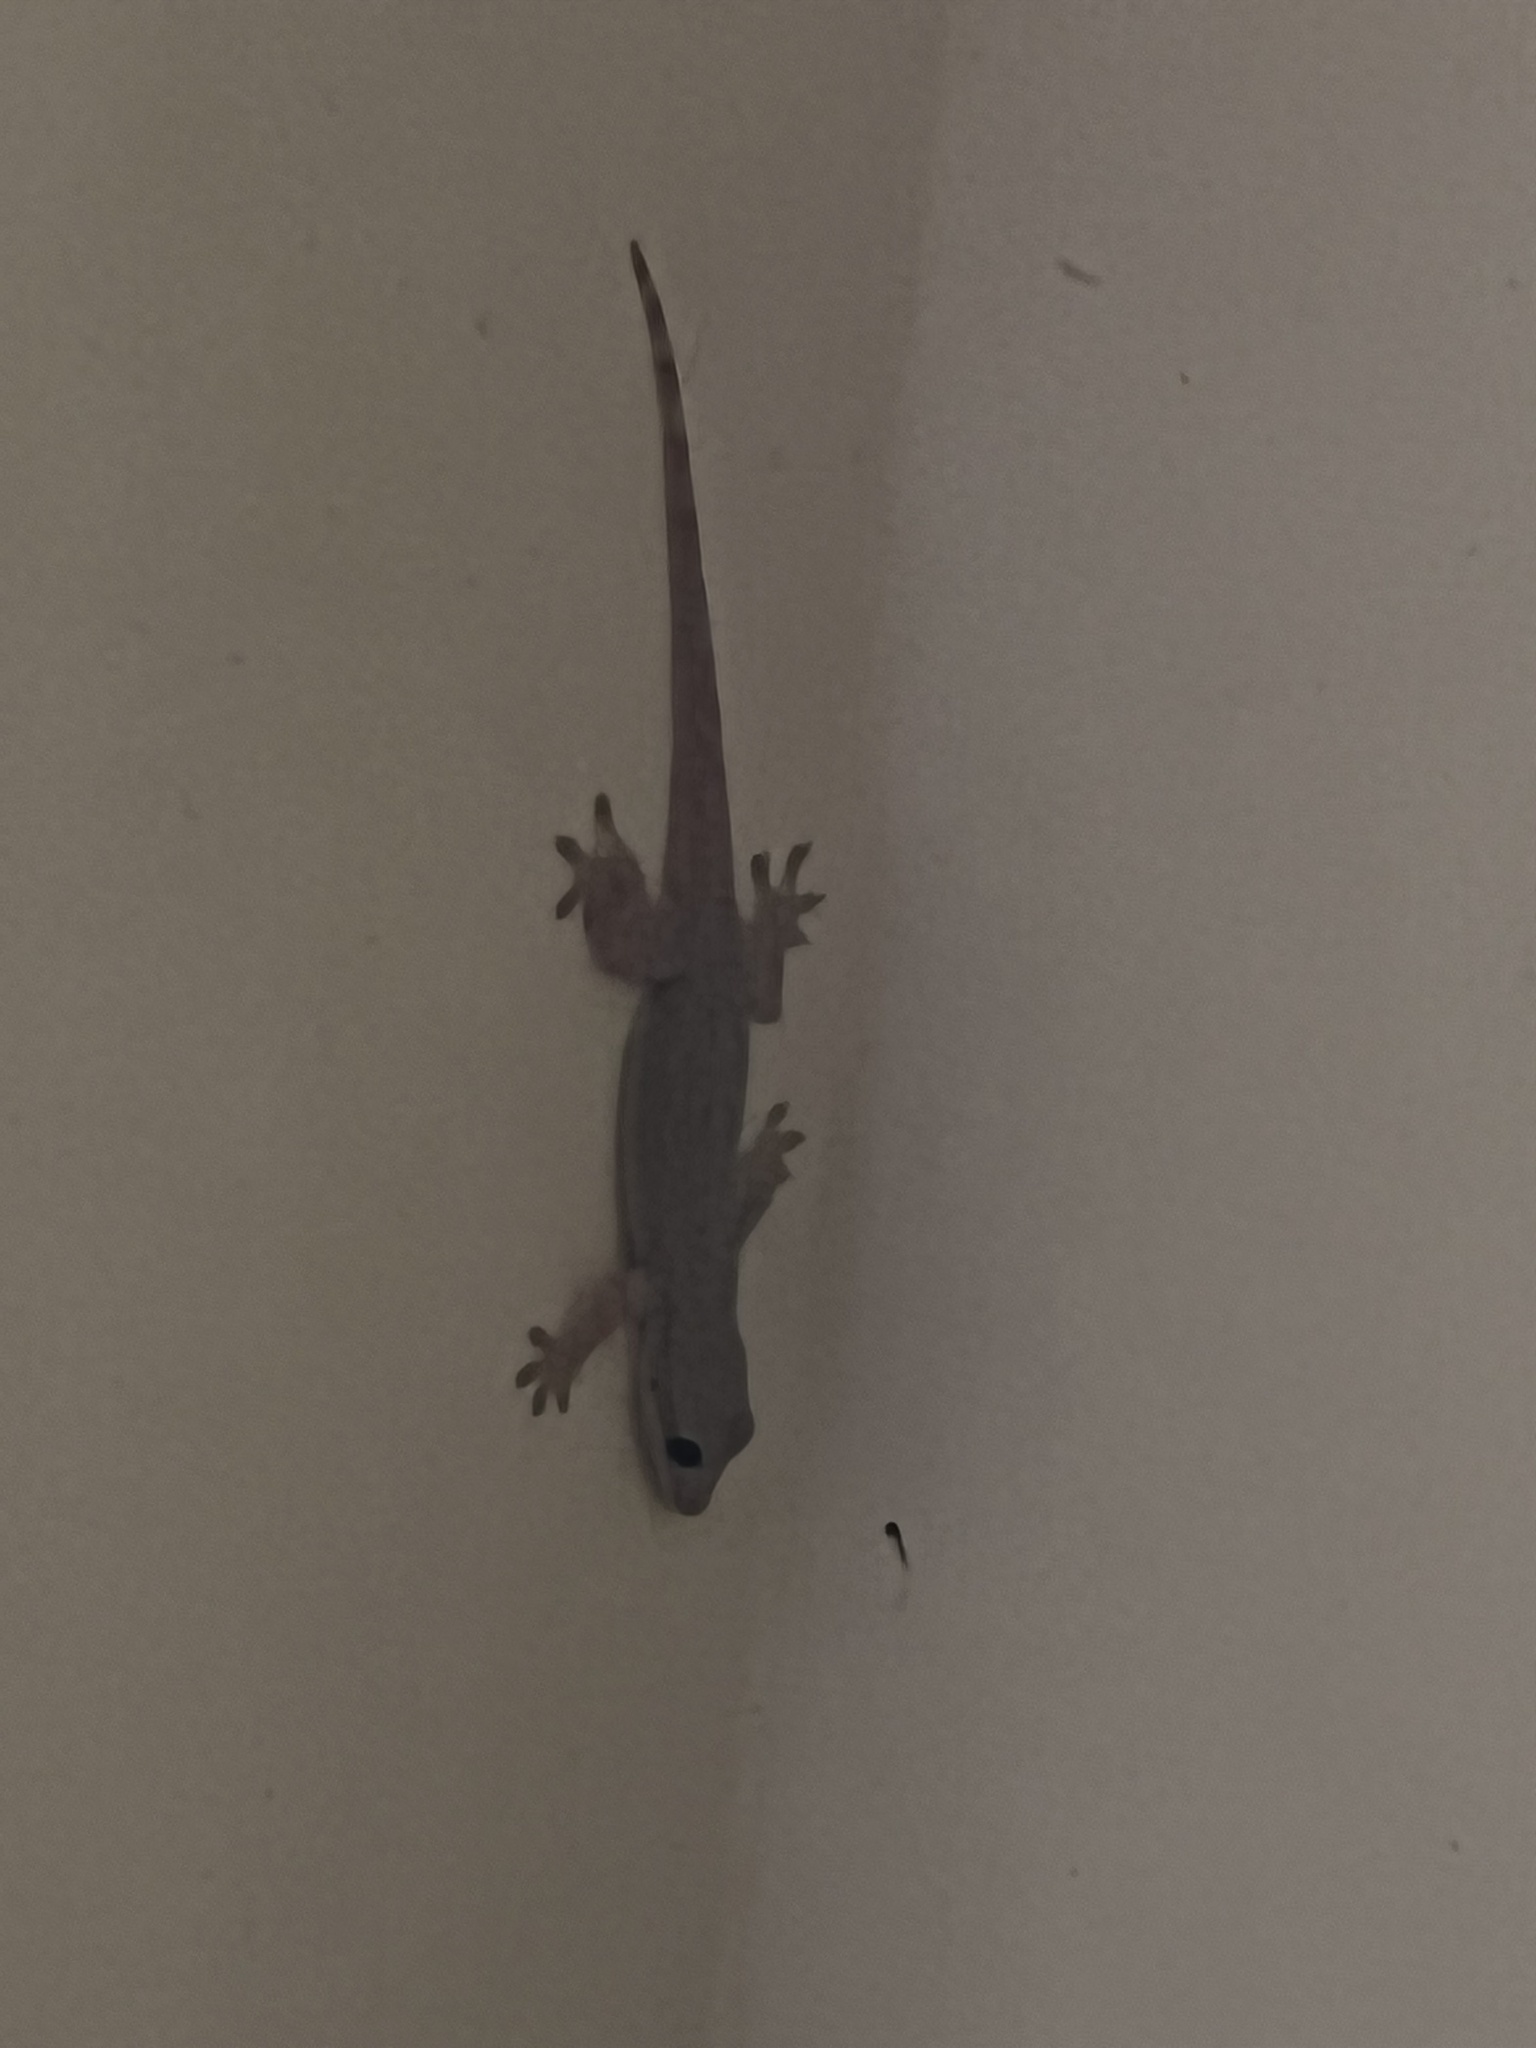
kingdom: Animalia
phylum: Chordata
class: Squamata
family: Gekkonidae
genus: Hemidactylus
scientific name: Hemidactylus platyurus
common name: Flat-tailed house gecko
